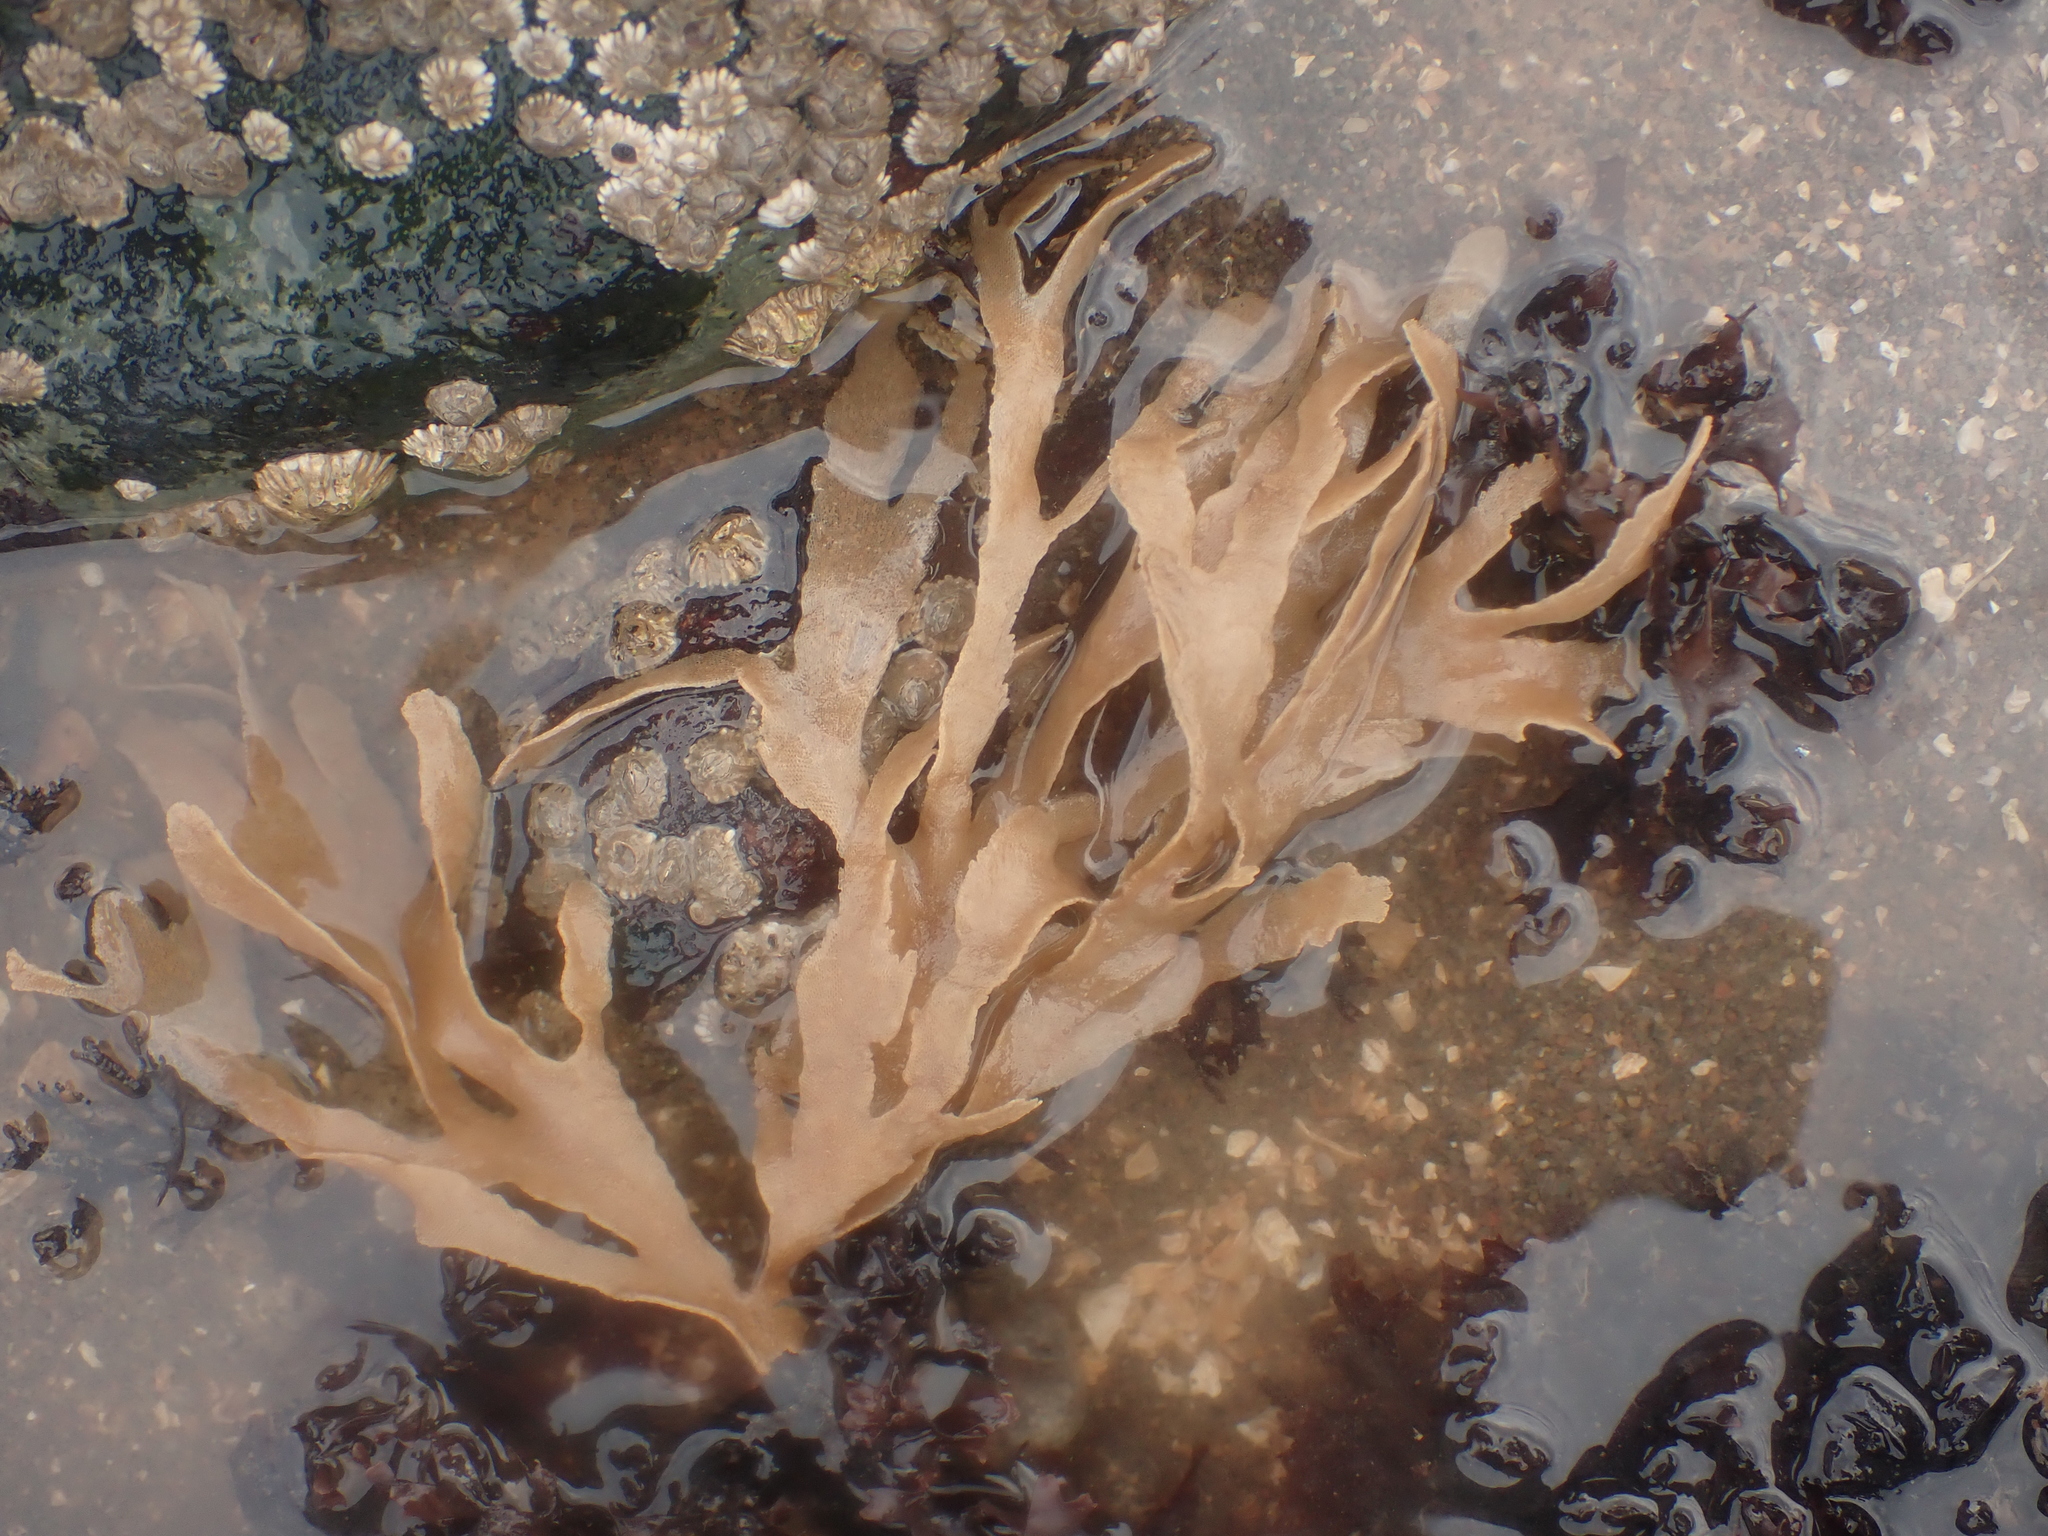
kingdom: Animalia
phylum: Bryozoa
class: Gymnolaemata
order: Cheilostomatida
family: Flustridae
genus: Flustra
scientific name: Flustra foliacea
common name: Hornwrack
